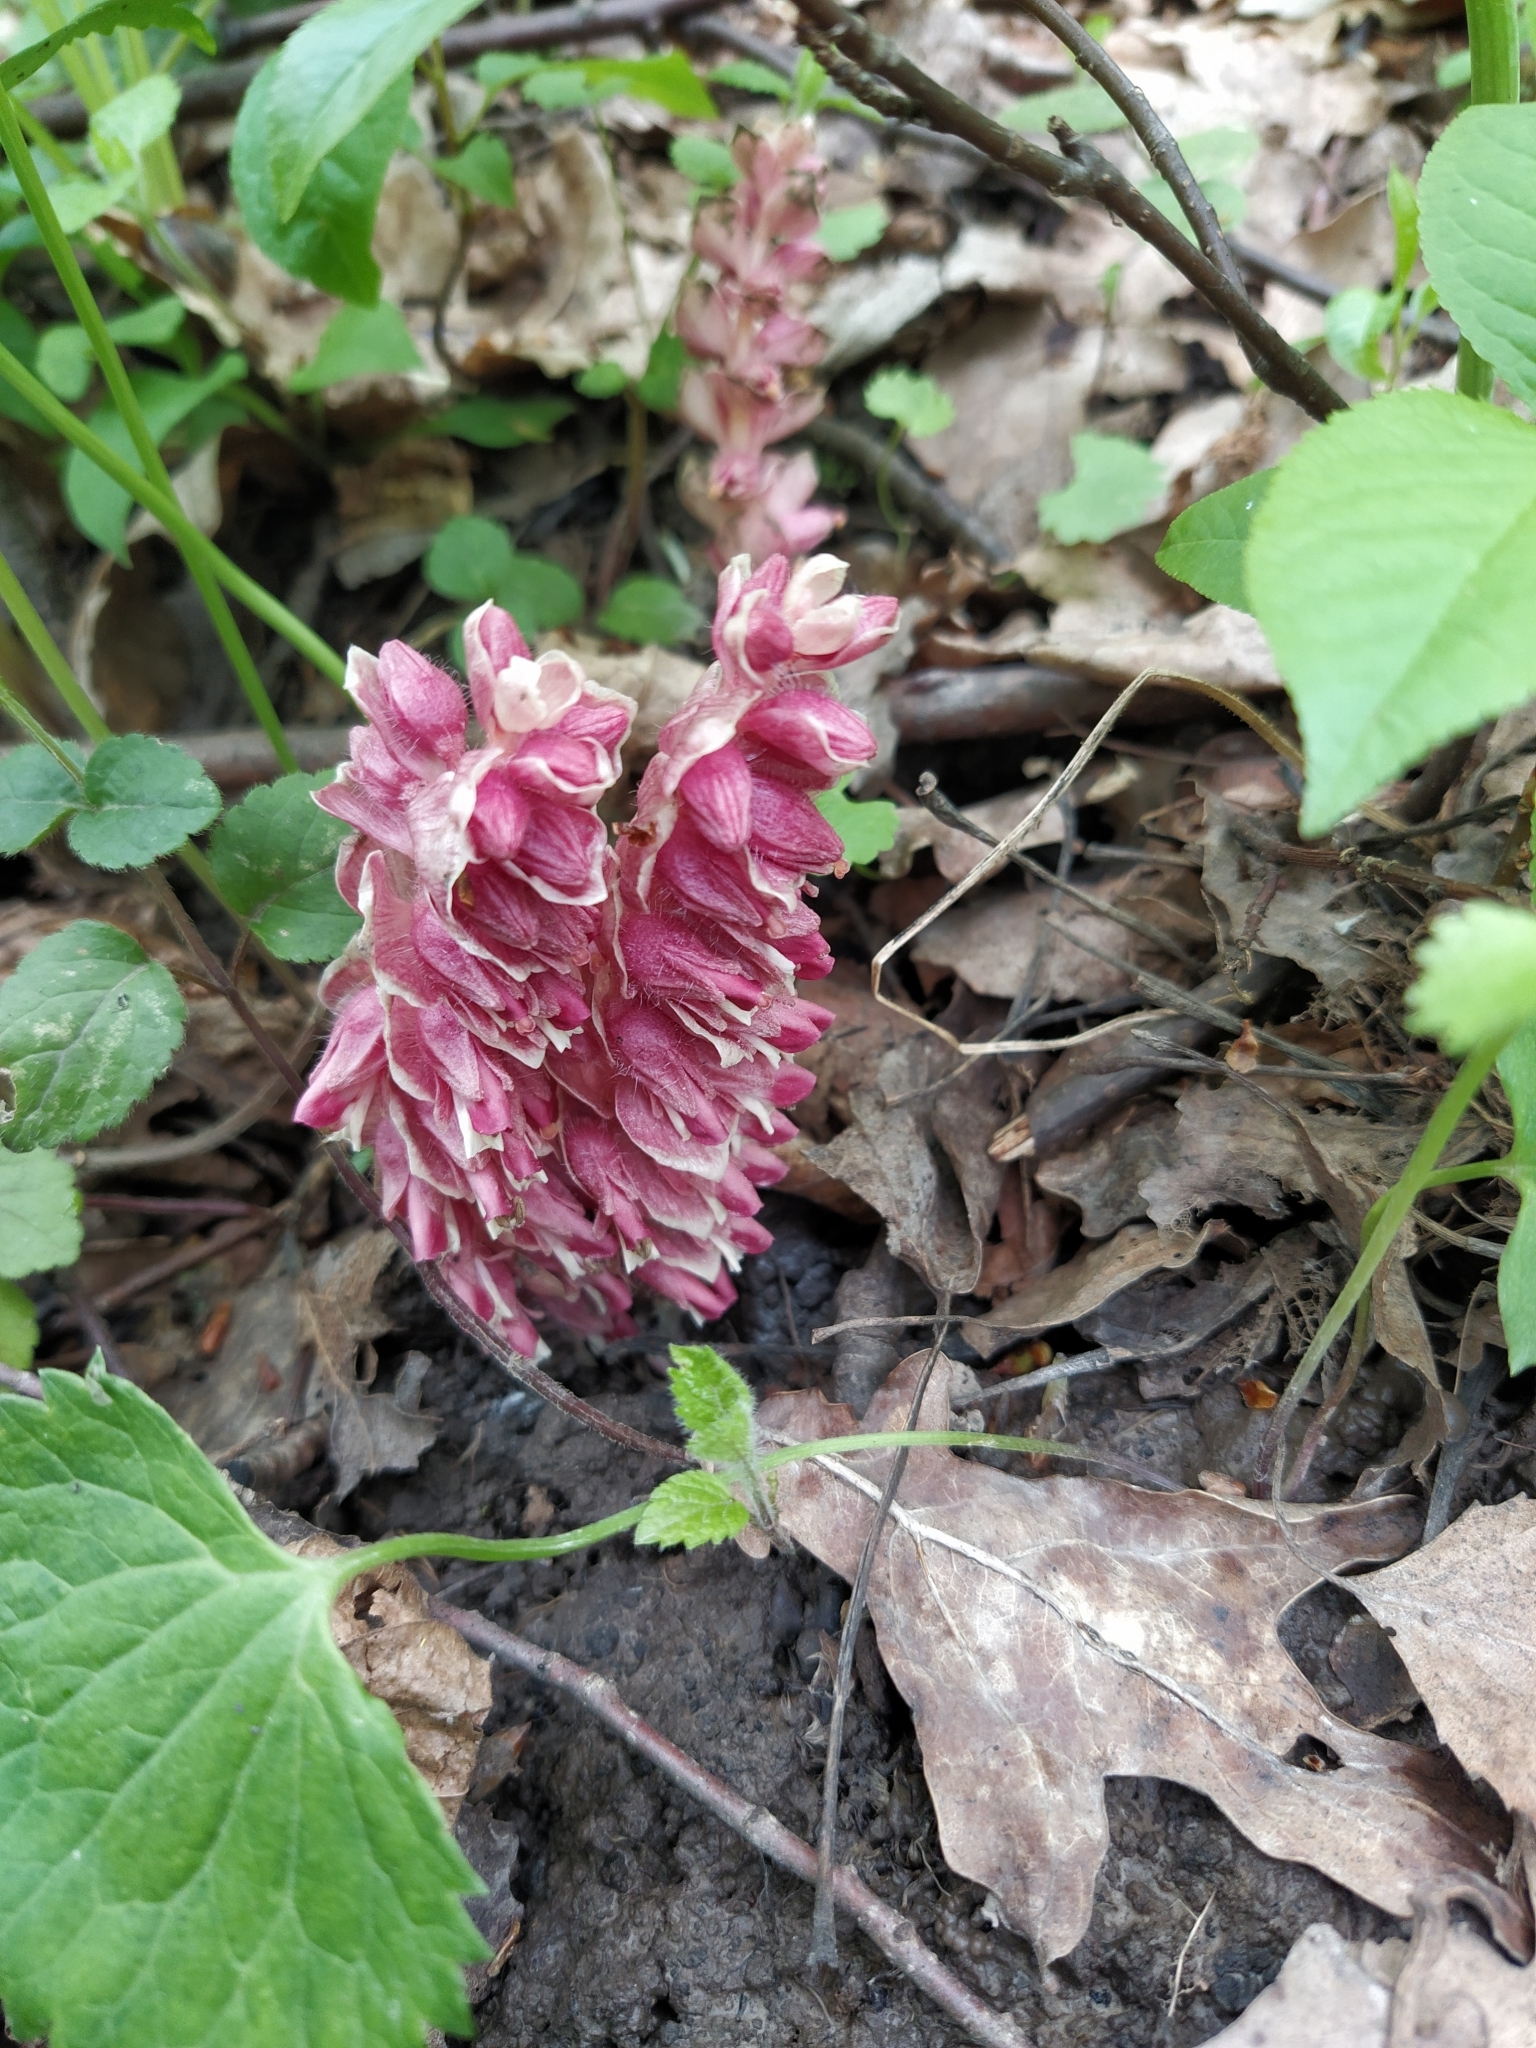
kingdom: Plantae
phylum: Tracheophyta
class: Magnoliopsida
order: Lamiales
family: Orobanchaceae
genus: Lathraea
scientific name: Lathraea squamaria
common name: Toothwort
